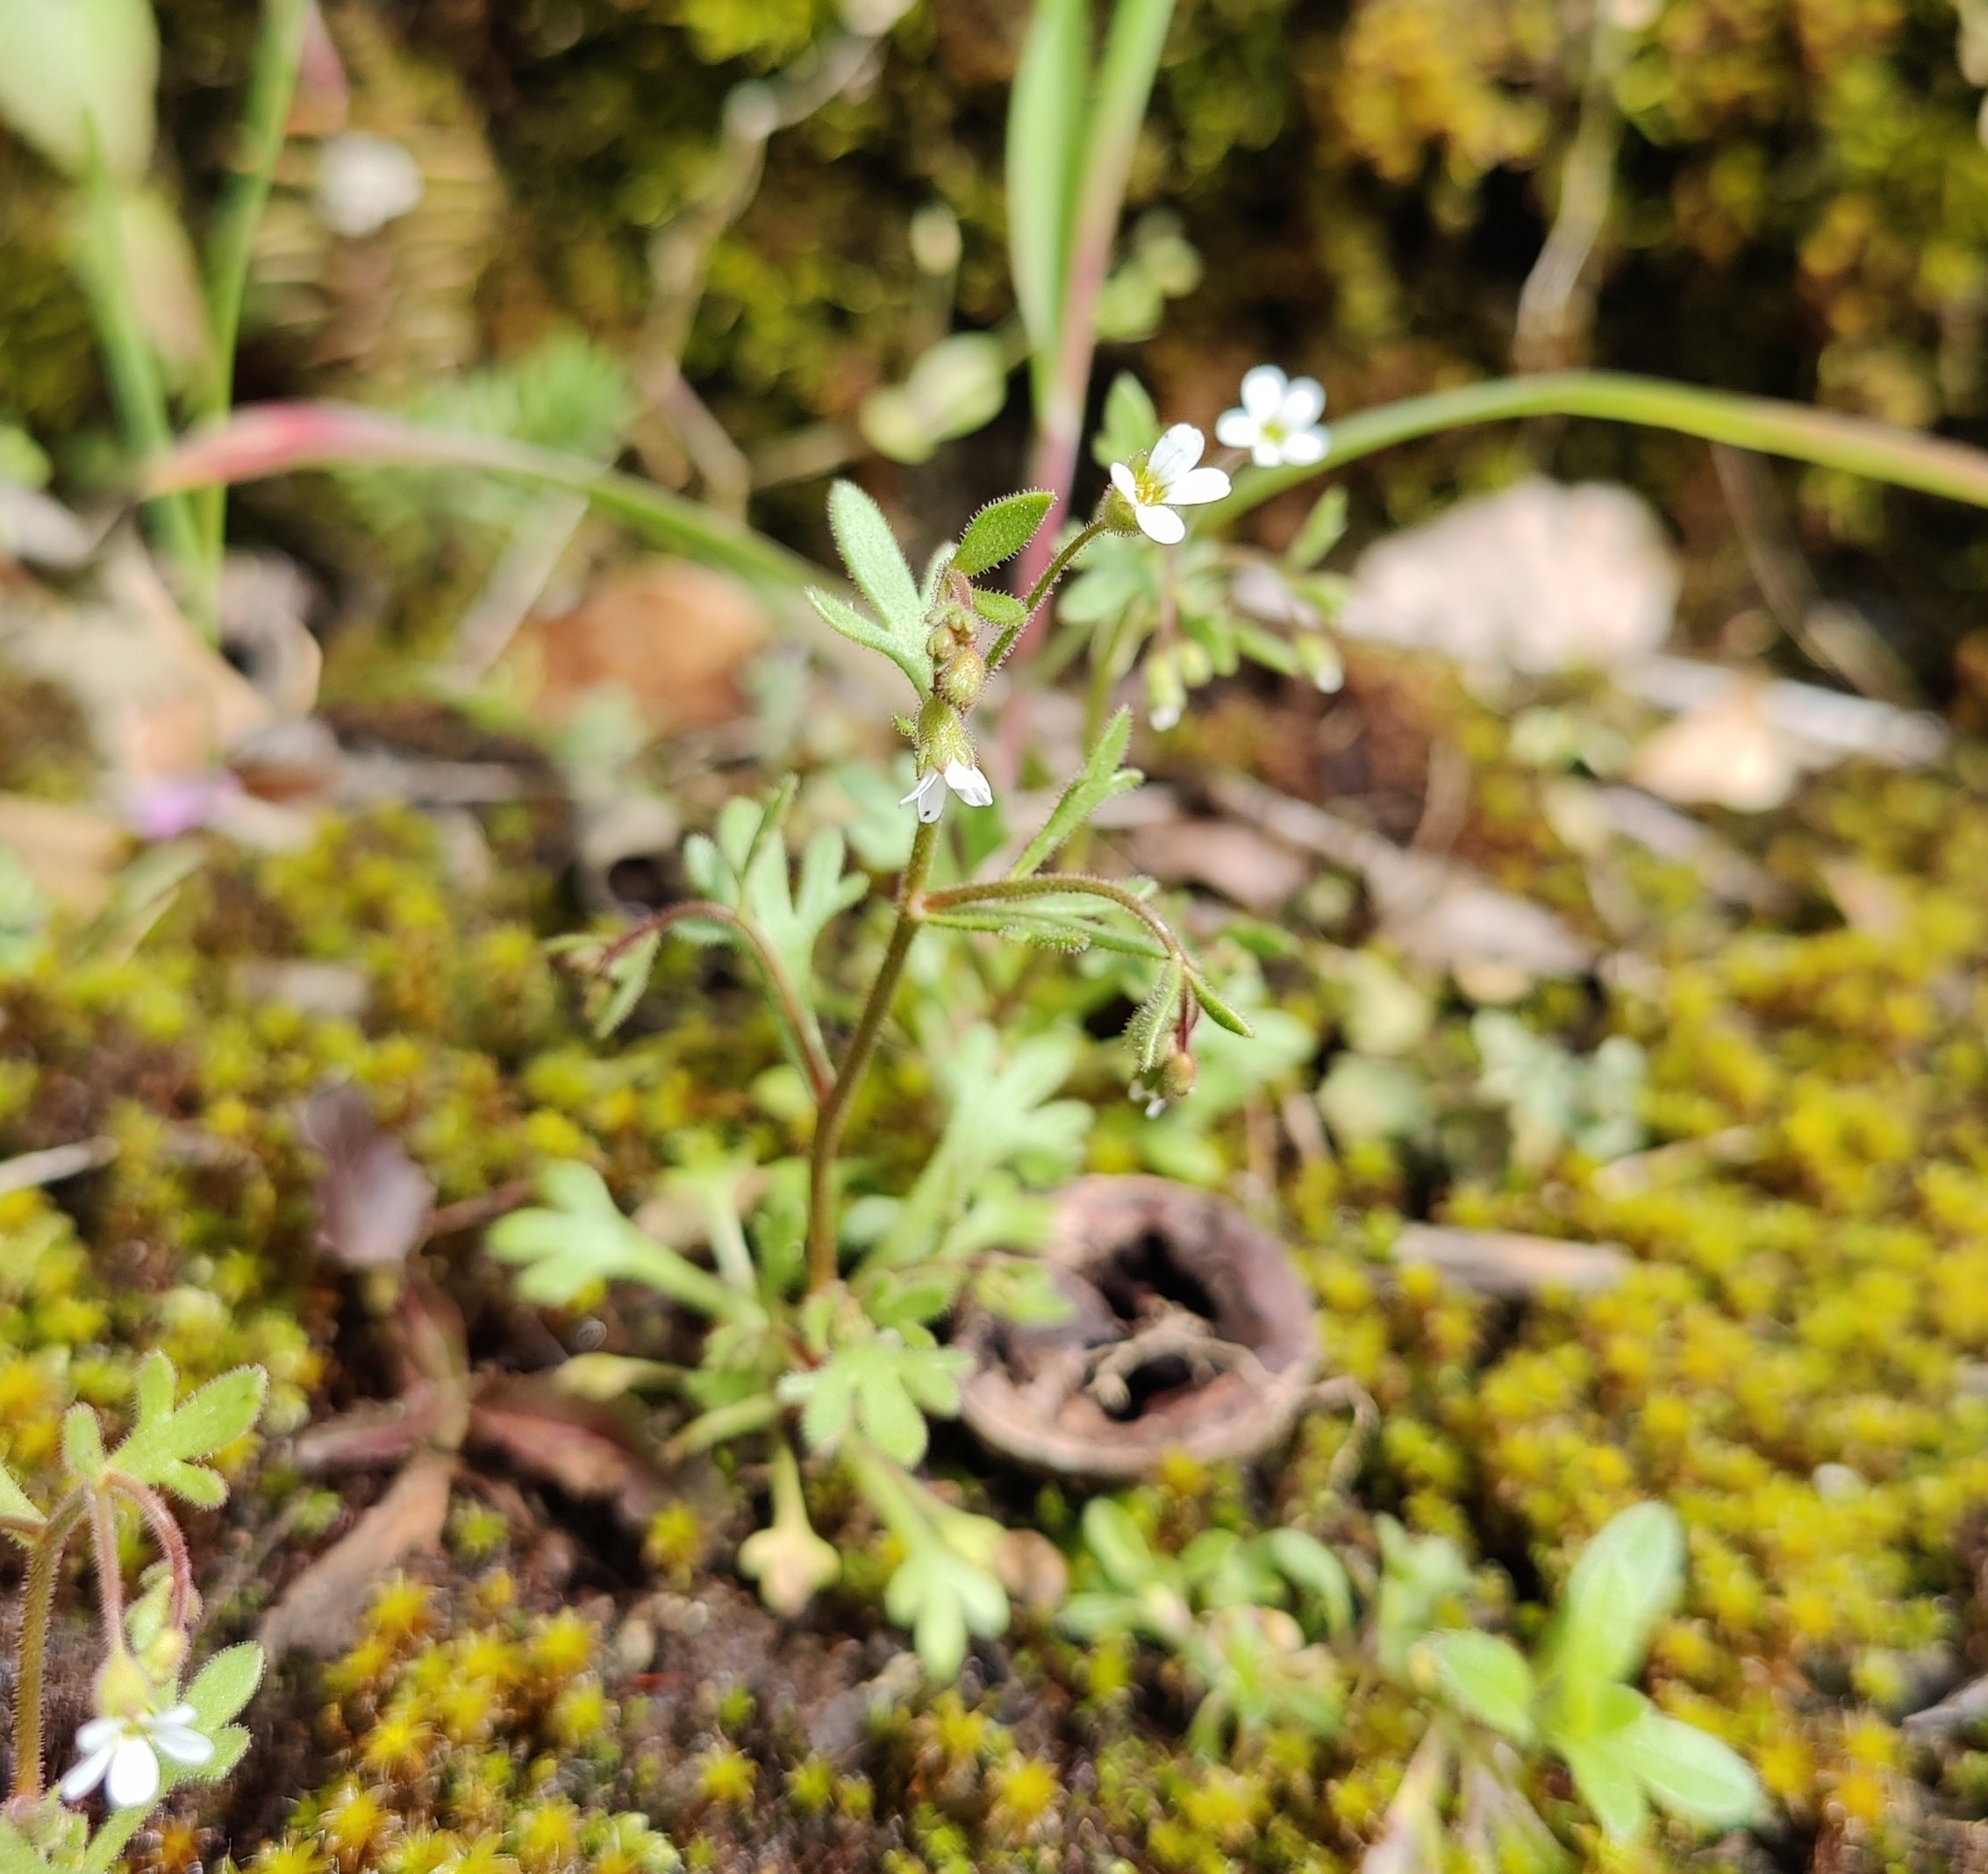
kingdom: Plantae
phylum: Tracheophyta
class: Magnoliopsida
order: Saxifragales
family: Saxifragaceae
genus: Saxifraga
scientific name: Saxifraga tridactylites
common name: Rue-leaved saxifrage
